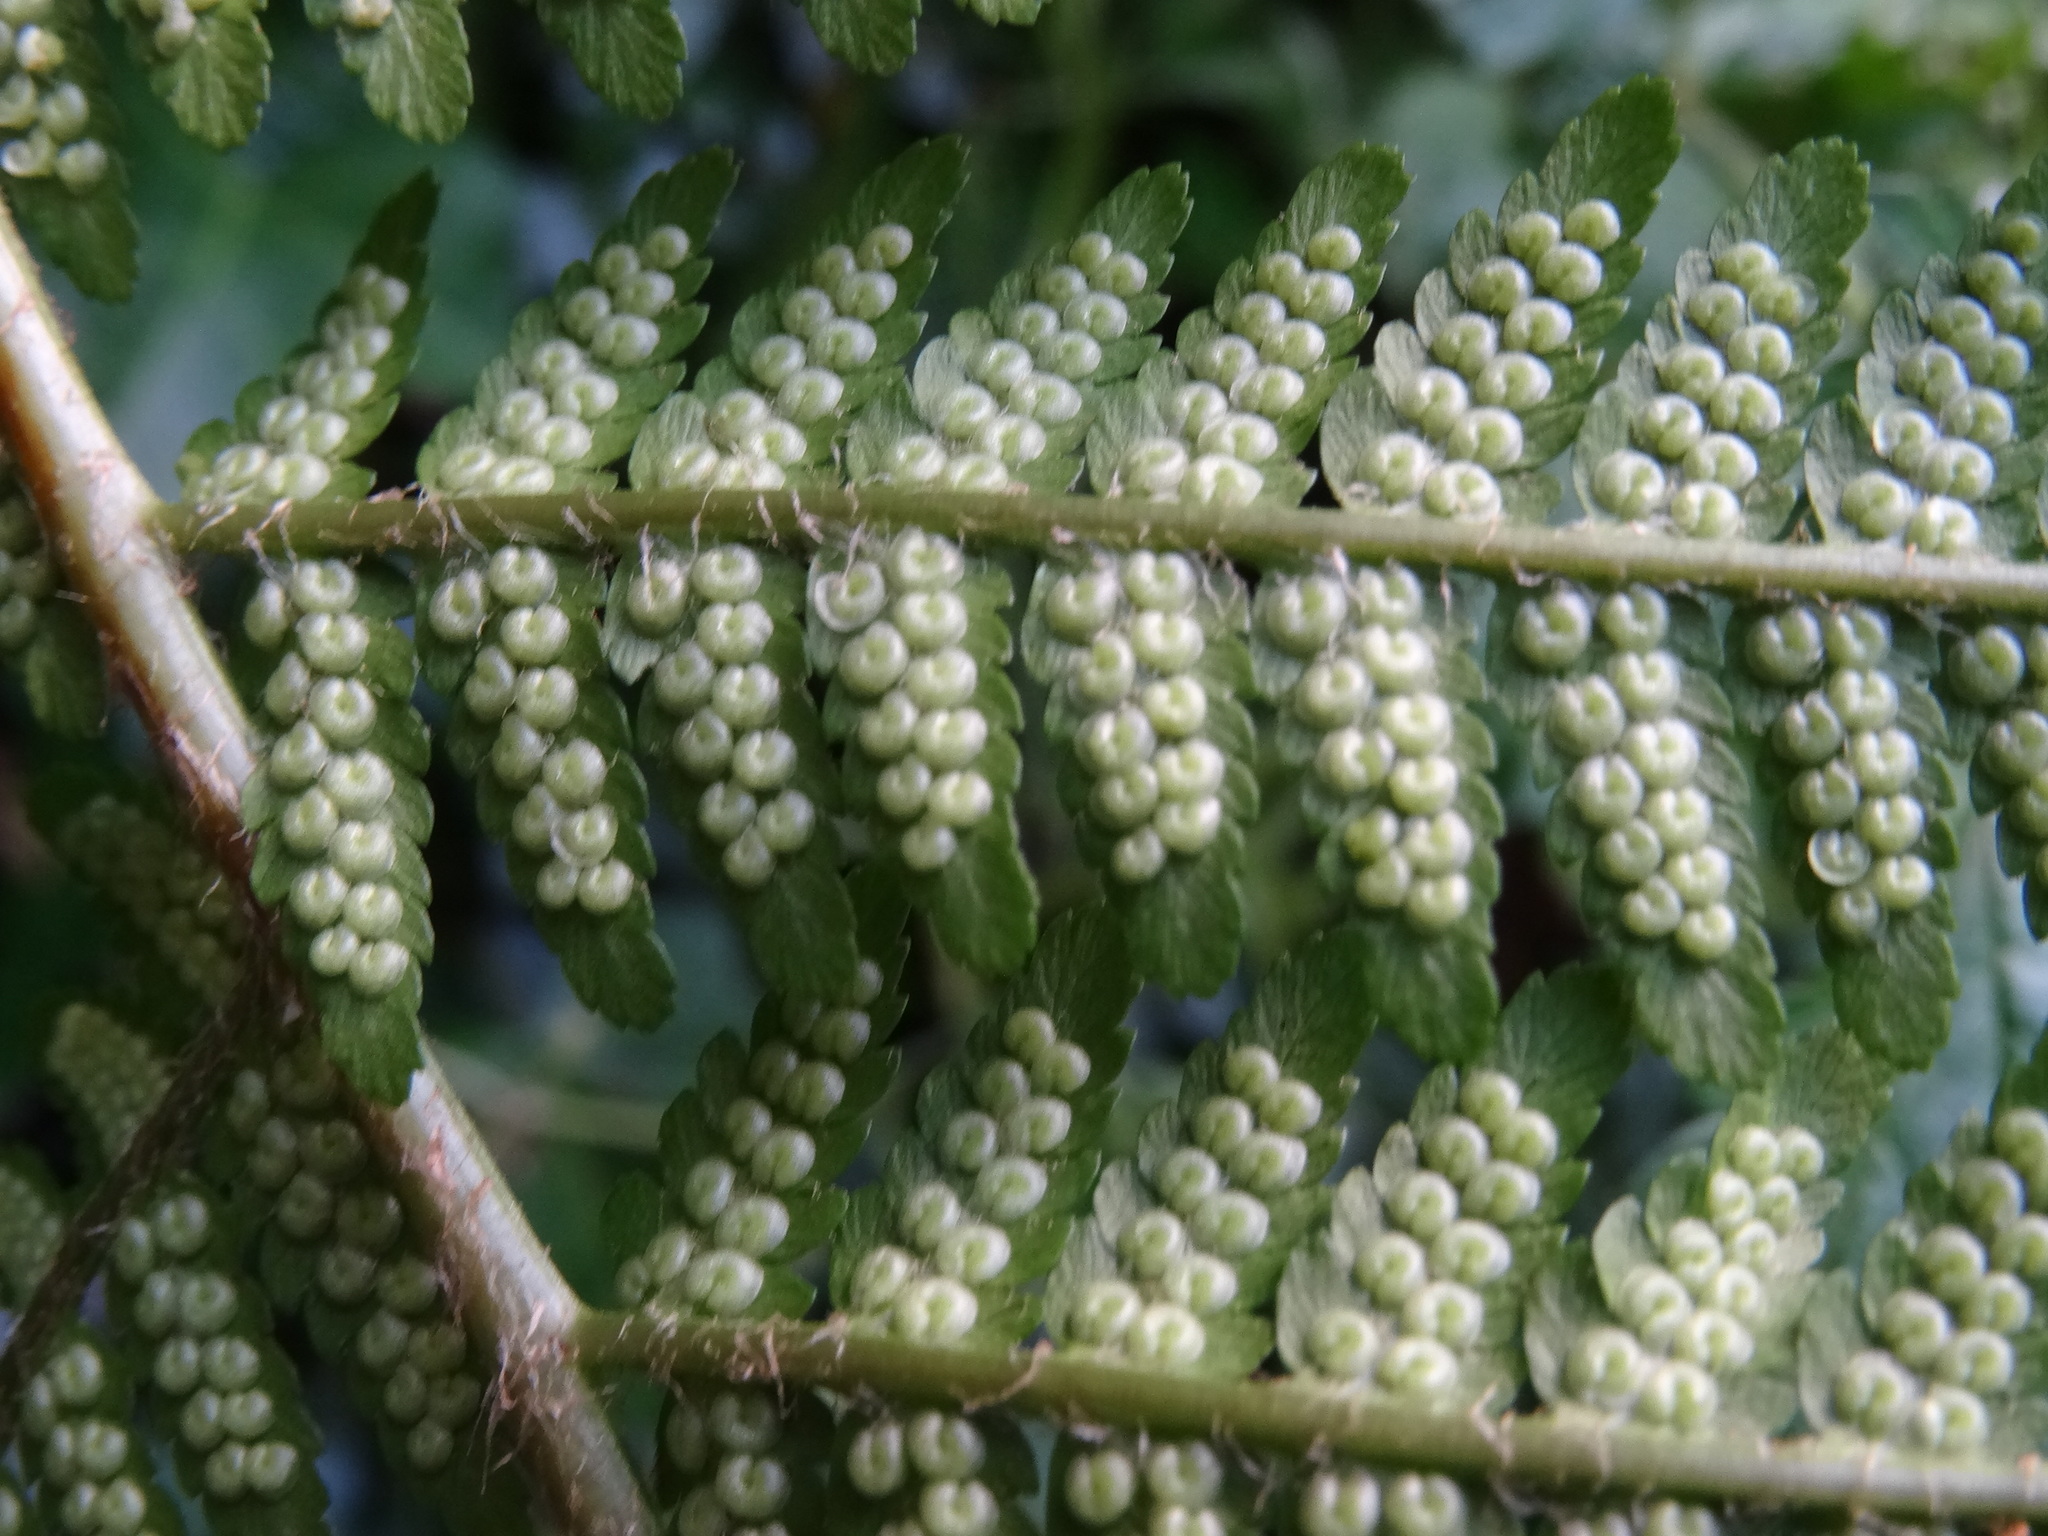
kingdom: Plantae
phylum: Tracheophyta
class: Polypodiopsida
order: Polypodiales
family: Dryopteridaceae
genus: Dryopteris
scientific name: Dryopteris filix-mas
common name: Male fern
